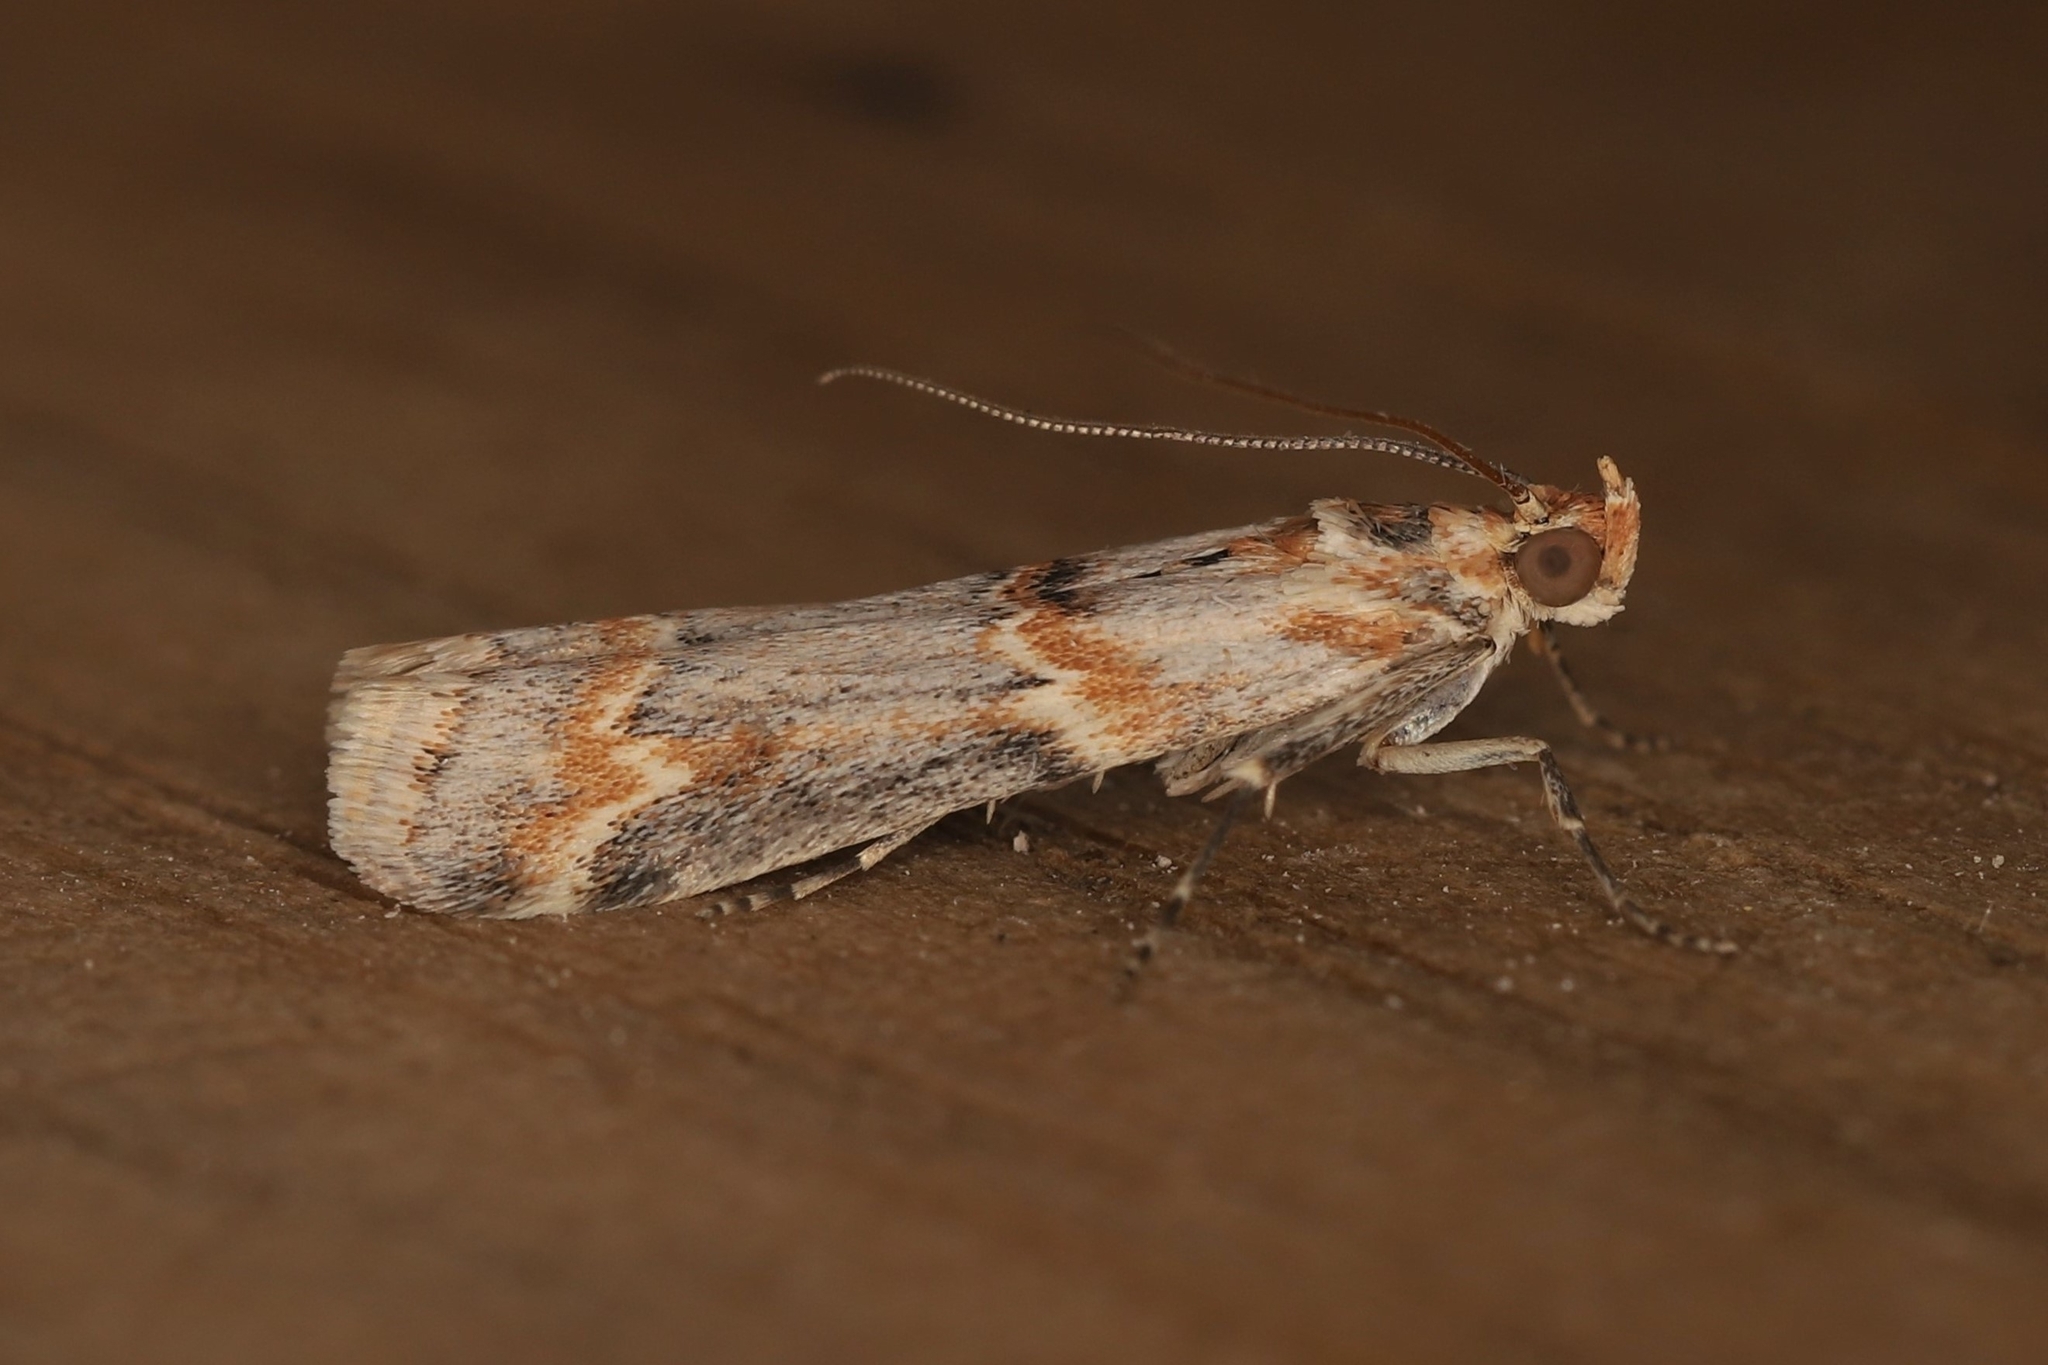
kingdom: Animalia
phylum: Arthropoda
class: Insecta
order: Lepidoptera
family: Pyralidae
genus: Ancylosis
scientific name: Ancylosis harmoniella
